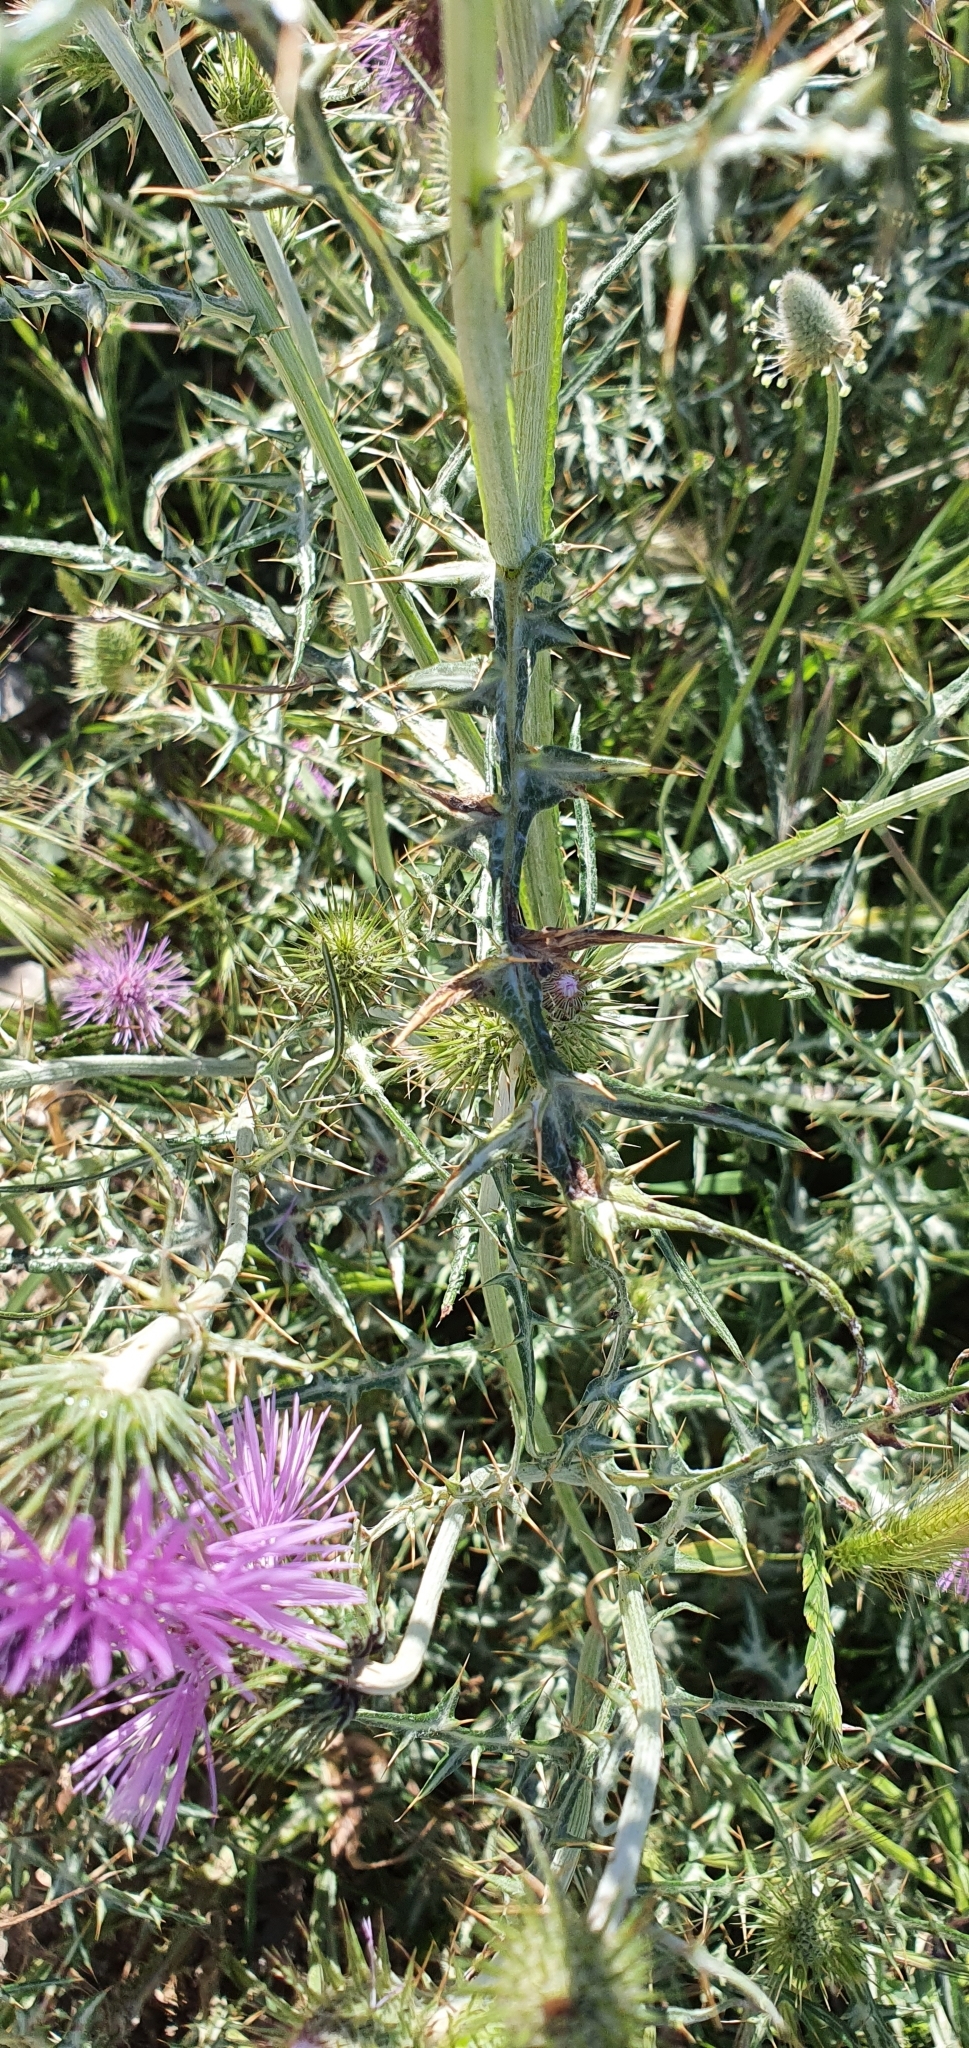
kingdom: Plantae
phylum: Tracheophyta
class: Magnoliopsida
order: Asterales
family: Asteraceae
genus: Galactites
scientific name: Galactites tomentosa
